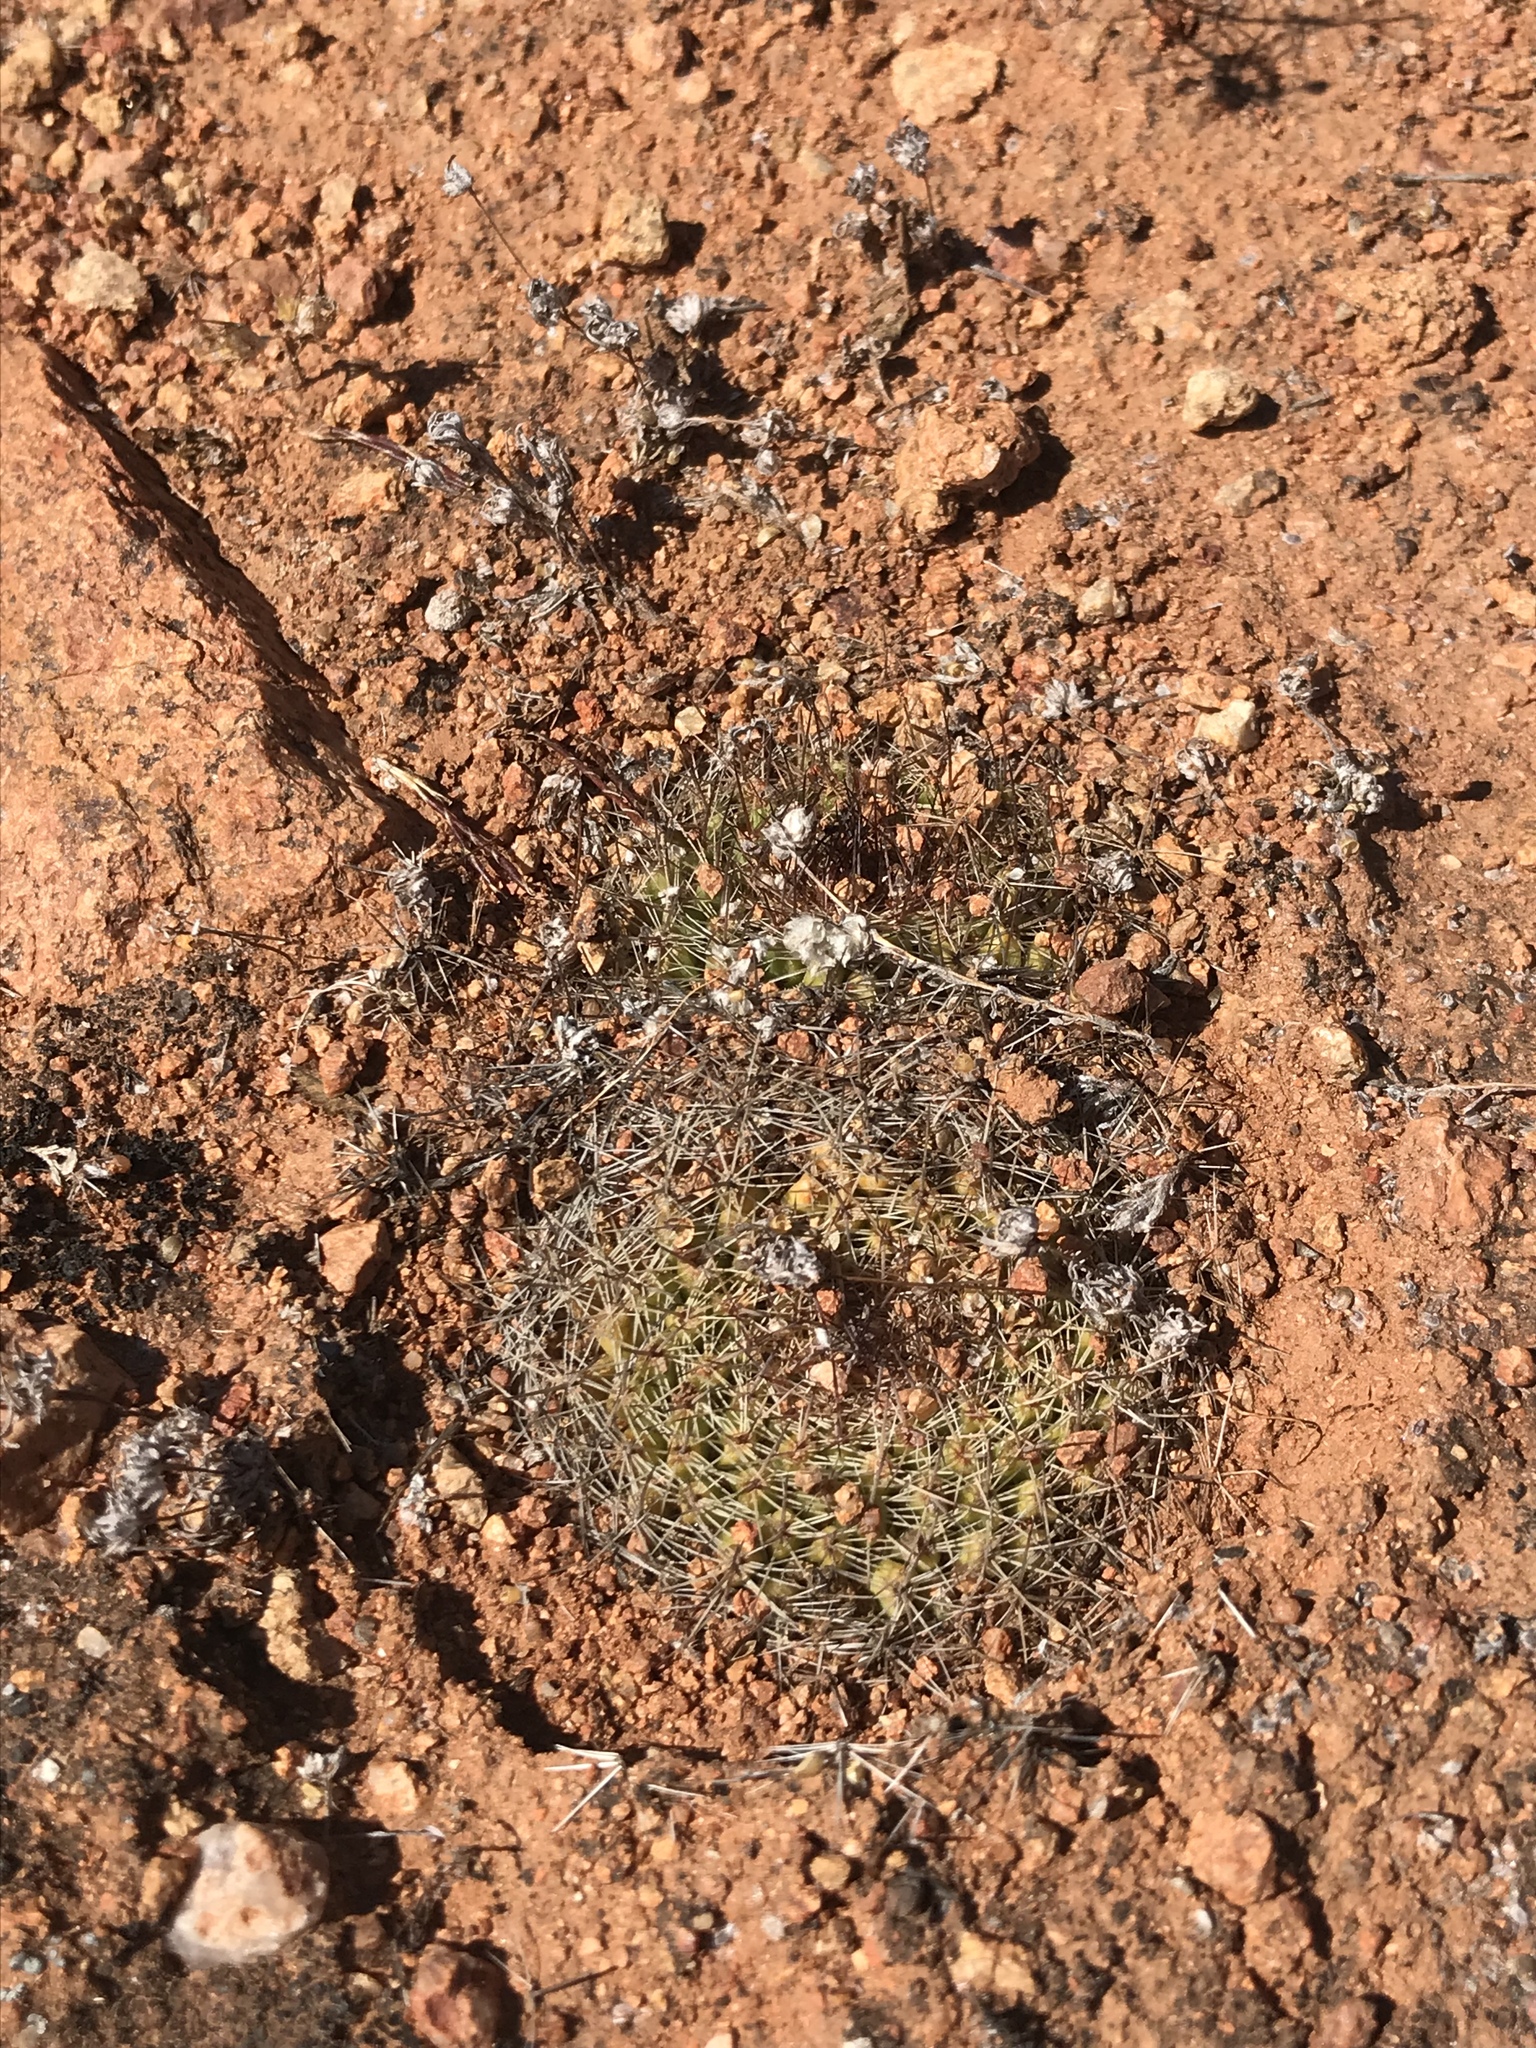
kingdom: Plantae
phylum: Tracheophyta
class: Magnoliopsida
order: Caryophyllales
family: Cactaceae
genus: Mammillaria
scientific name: Mammillaria brandegeei
